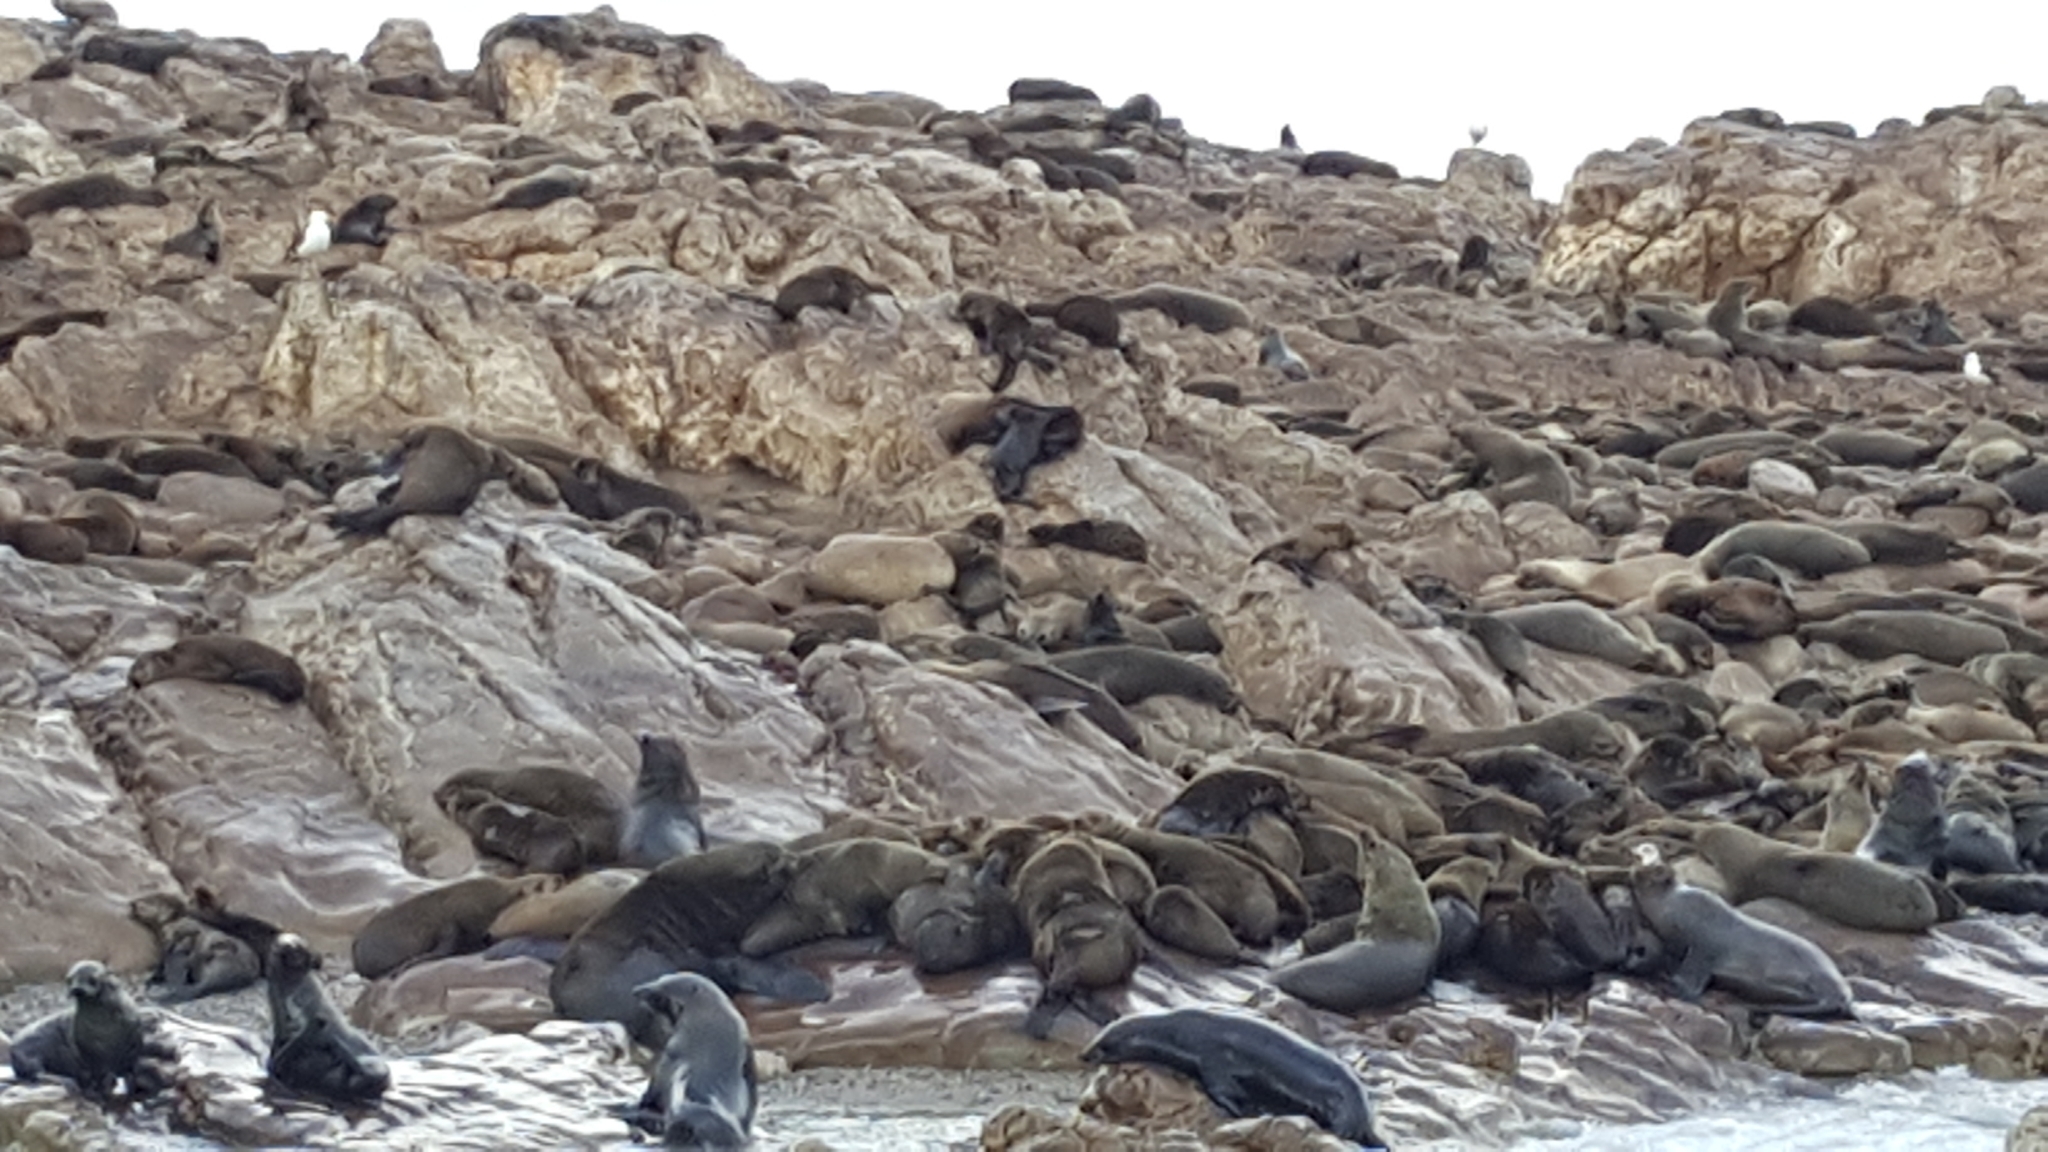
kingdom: Animalia
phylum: Chordata
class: Mammalia
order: Carnivora
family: Otariidae
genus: Arctocephalus
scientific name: Arctocephalus pusillus
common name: Brown fur seal
